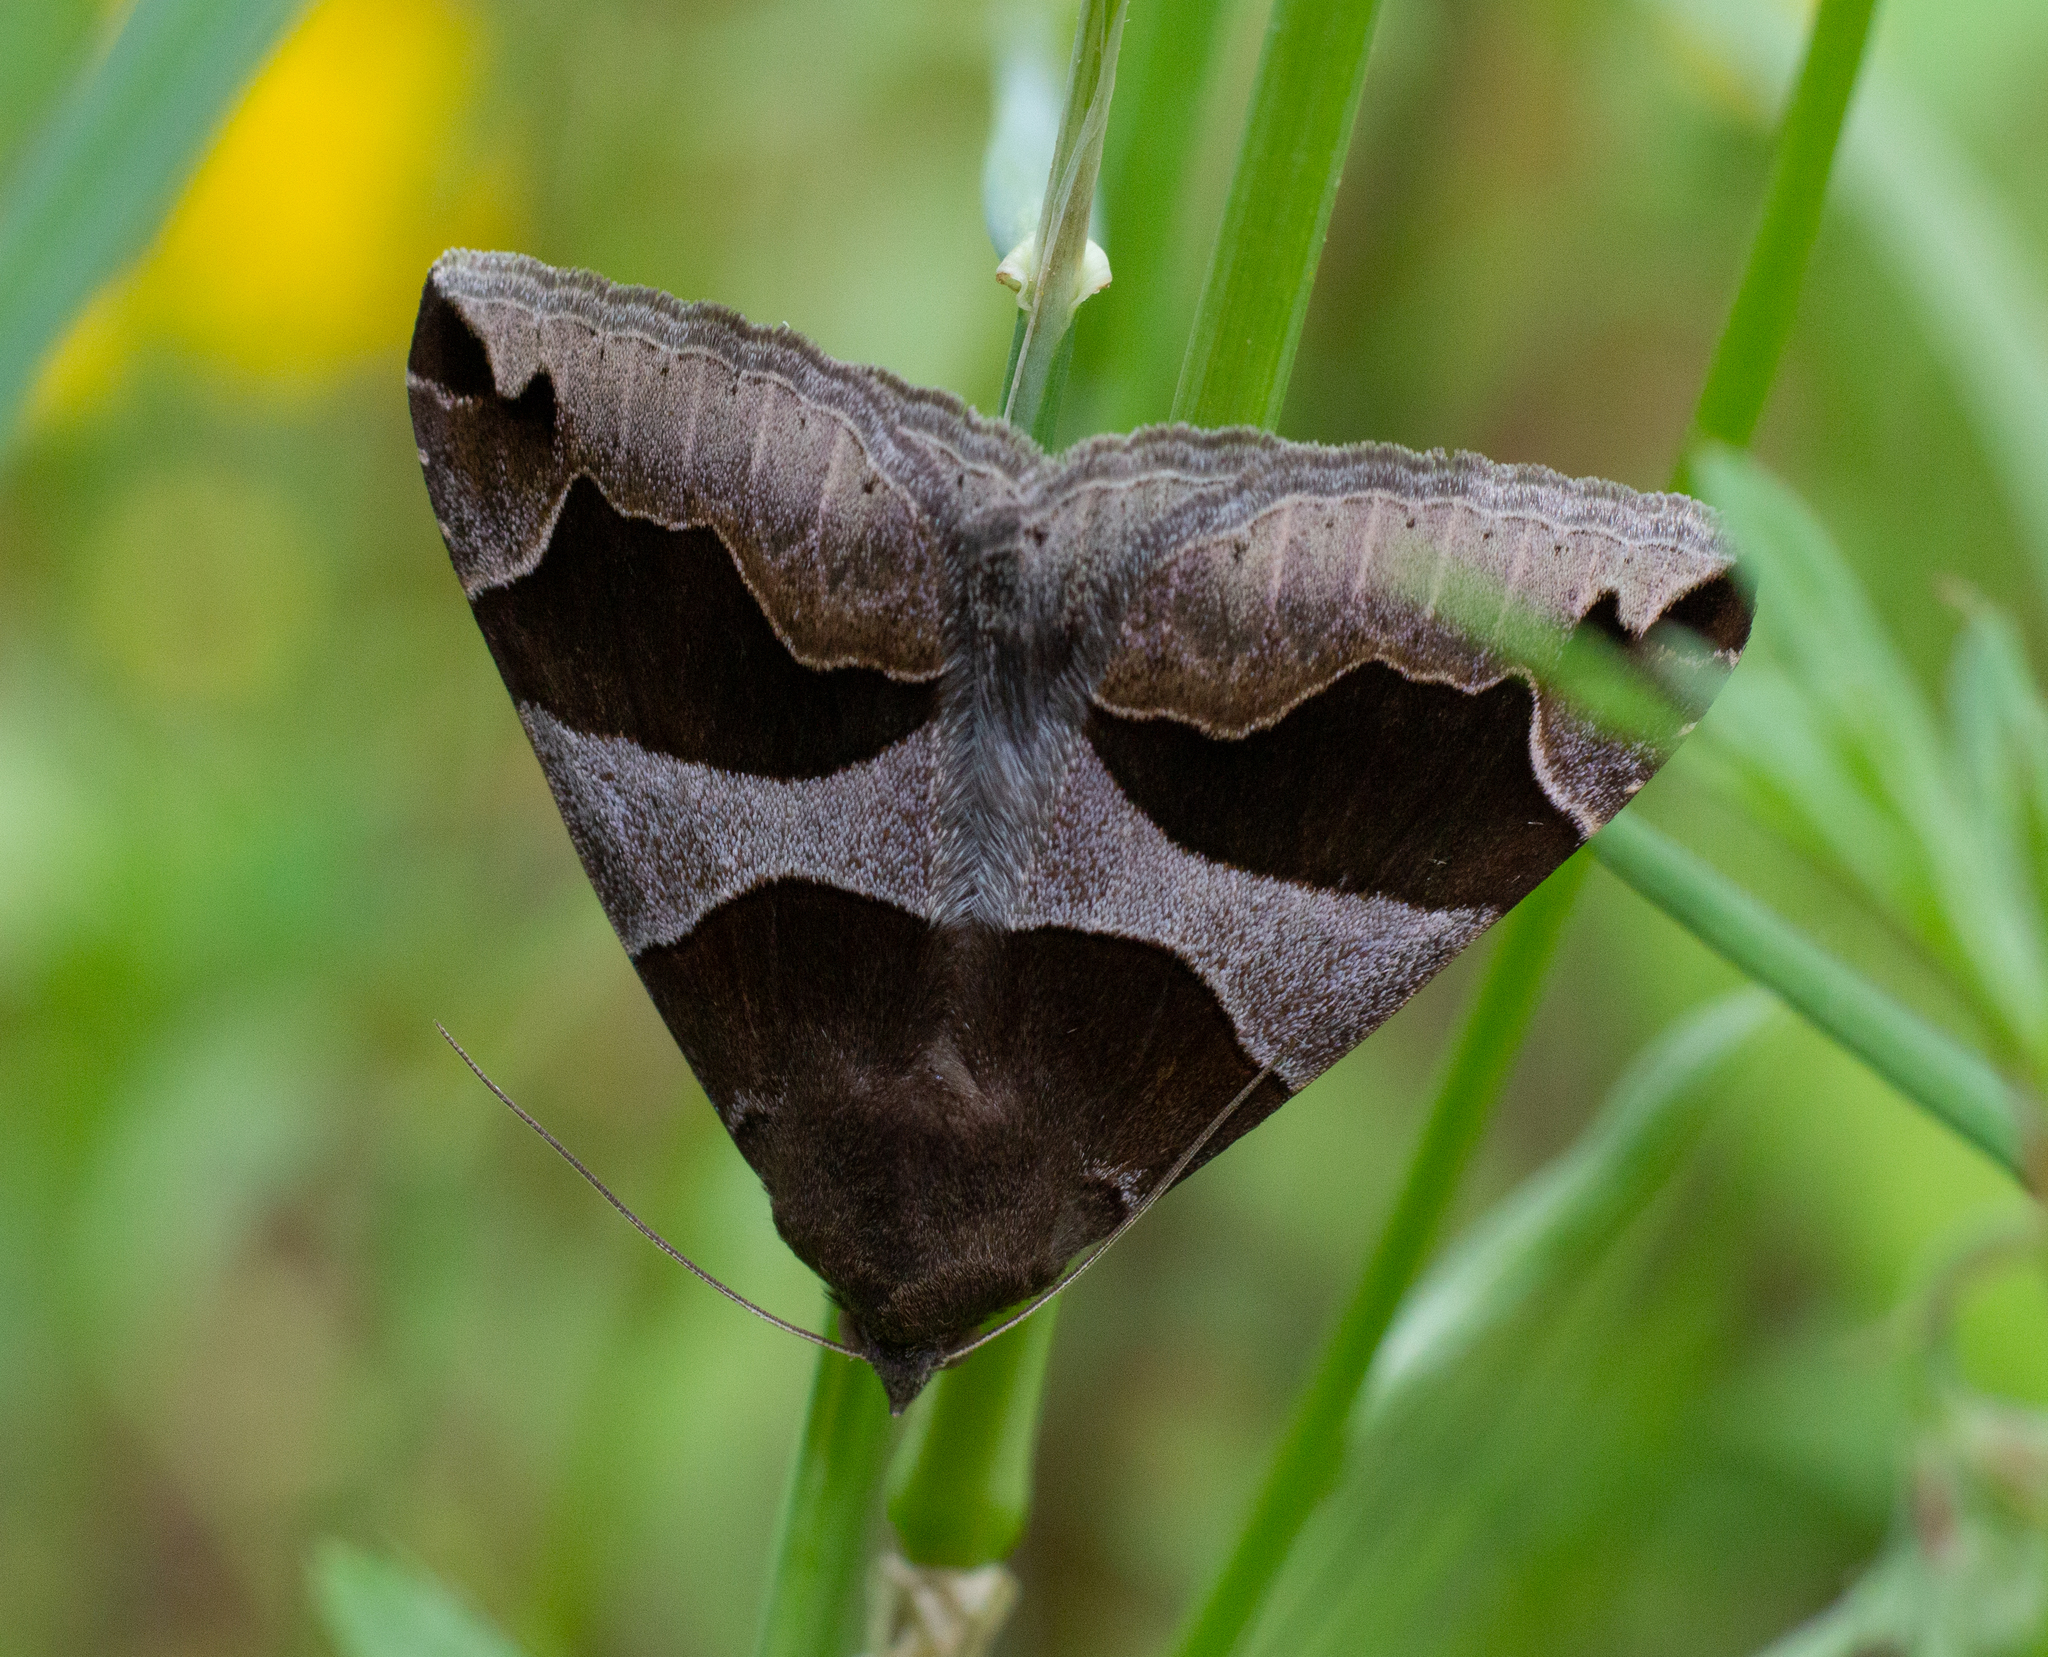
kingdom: Animalia
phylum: Arthropoda
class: Insecta
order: Lepidoptera
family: Erebidae
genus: Dysgonia
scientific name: Dysgonia algira
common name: Passenger
